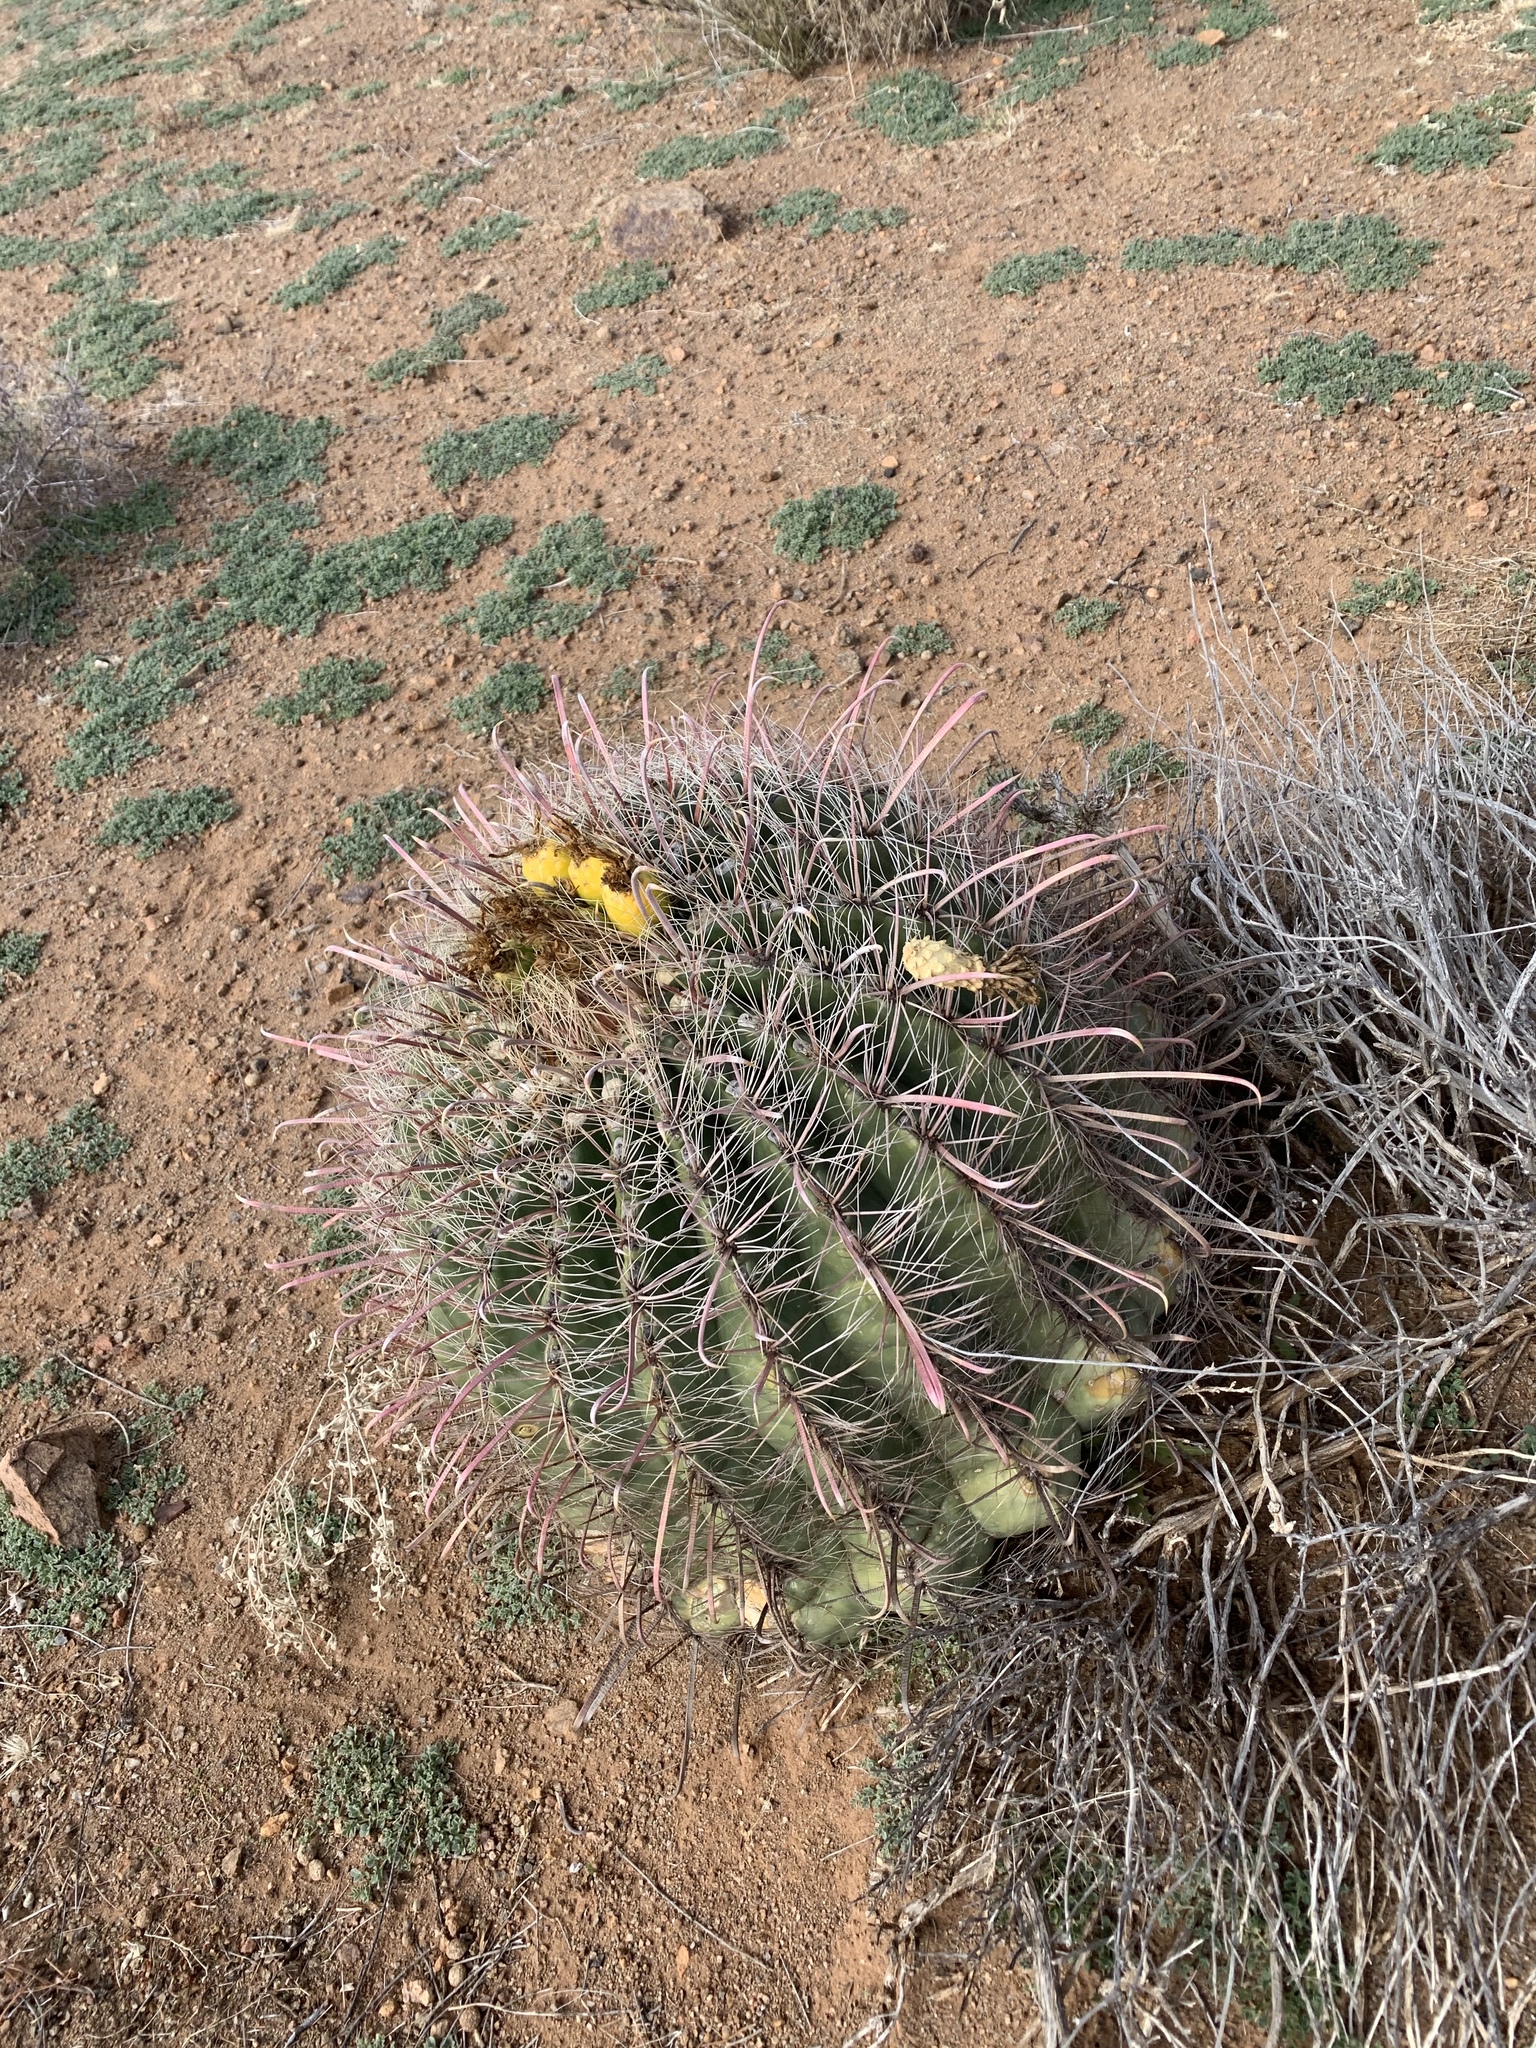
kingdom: Plantae
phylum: Tracheophyta
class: Magnoliopsida
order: Caryophyllales
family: Cactaceae
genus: Ferocactus
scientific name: Ferocactus wislizeni
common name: Candy barrel cactus
